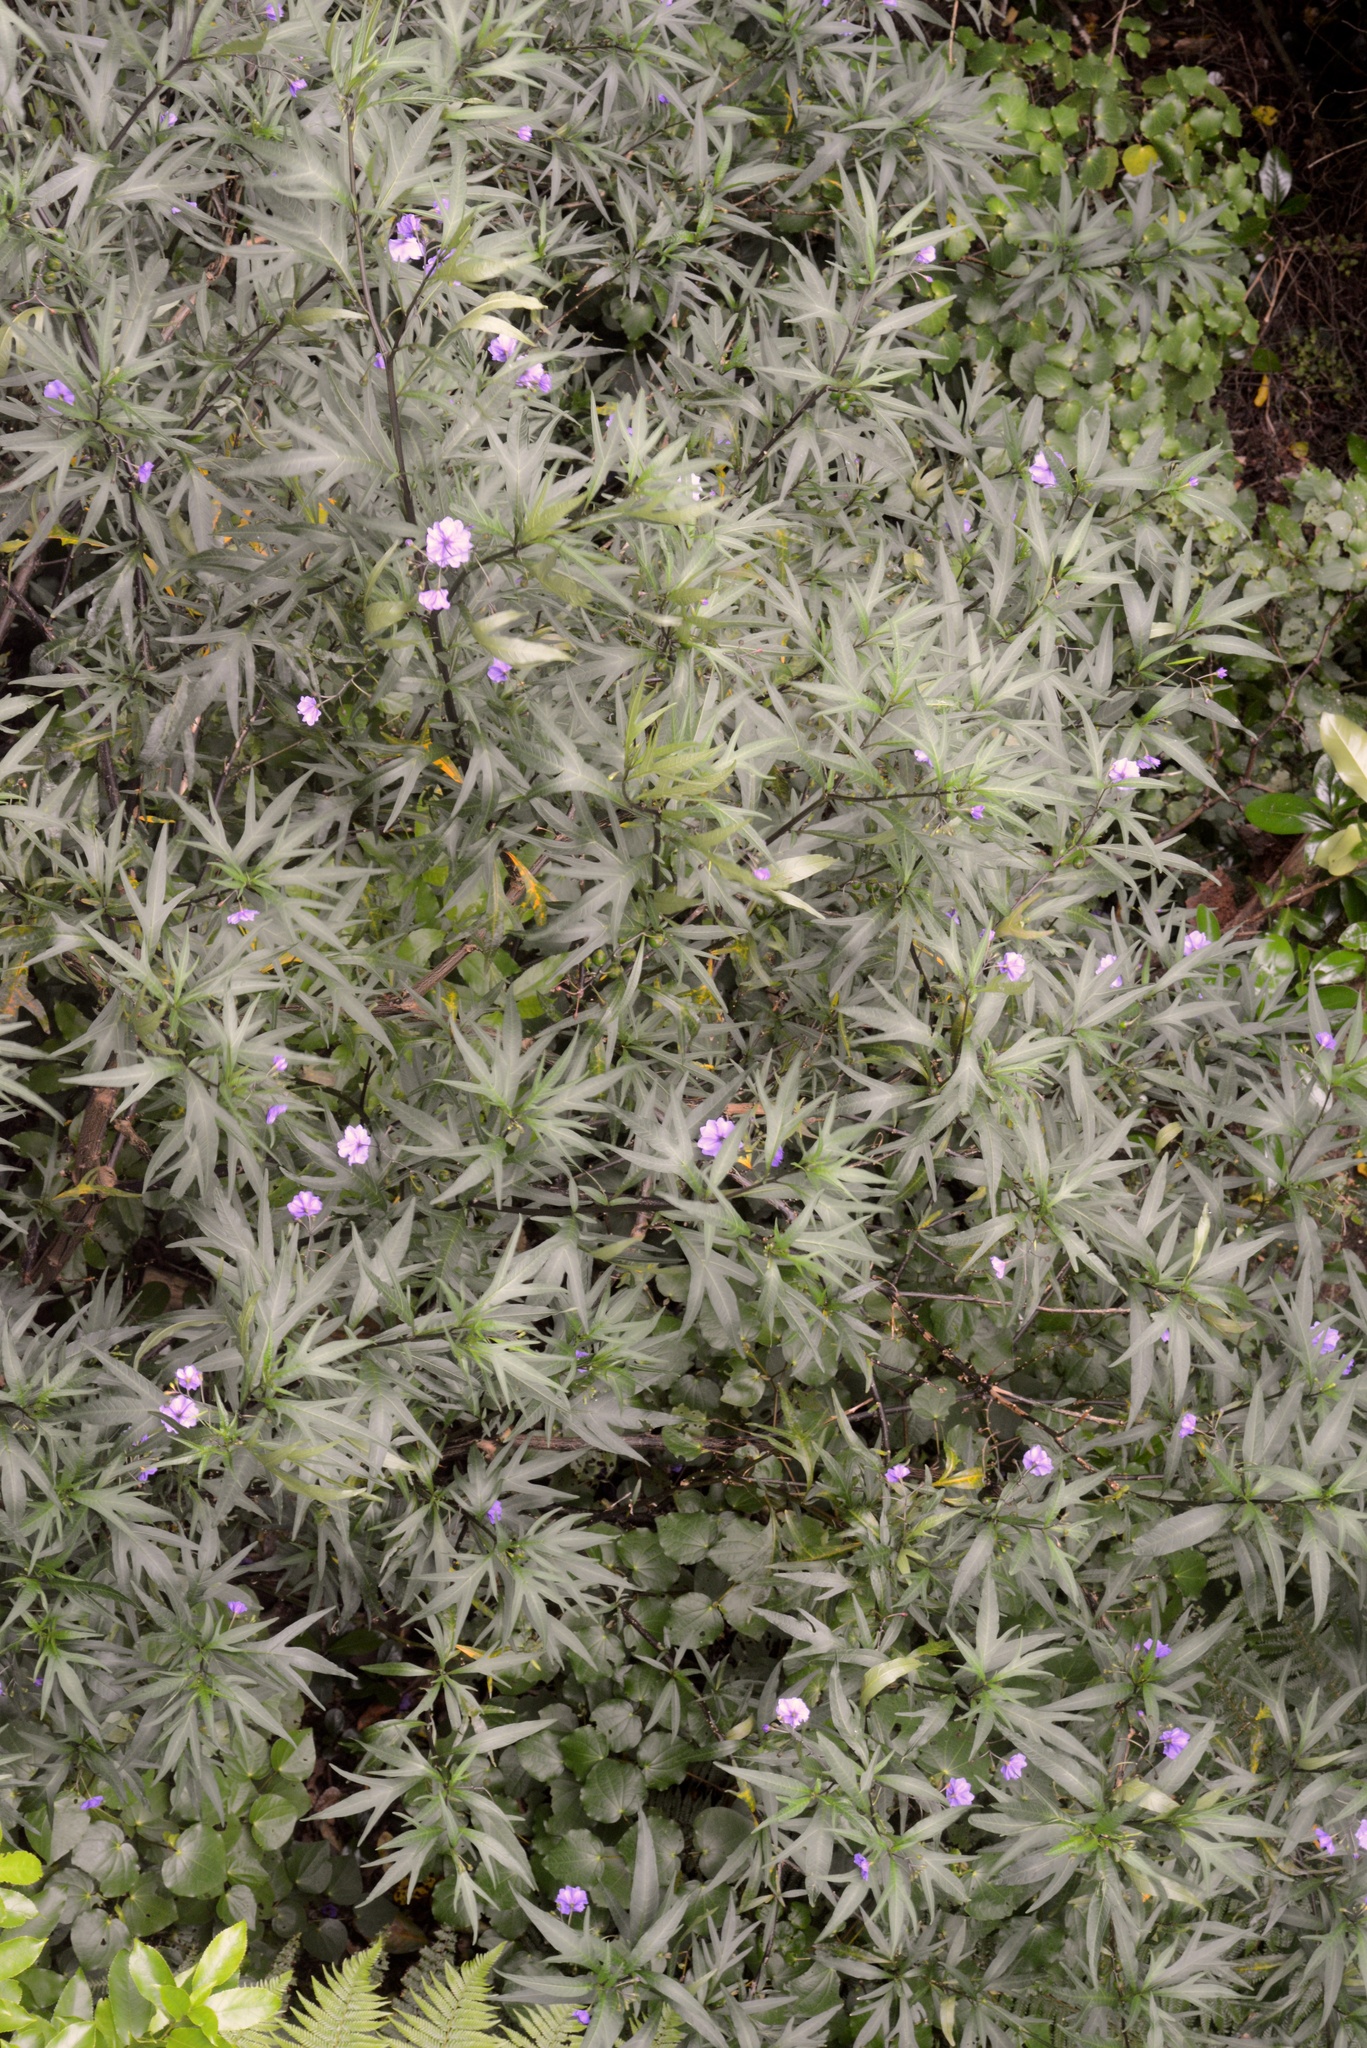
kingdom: Plantae
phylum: Tracheophyta
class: Magnoliopsida
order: Solanales
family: Solanaceae
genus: Solanum
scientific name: Solanum laciniatum
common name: Kangaroo-apple
